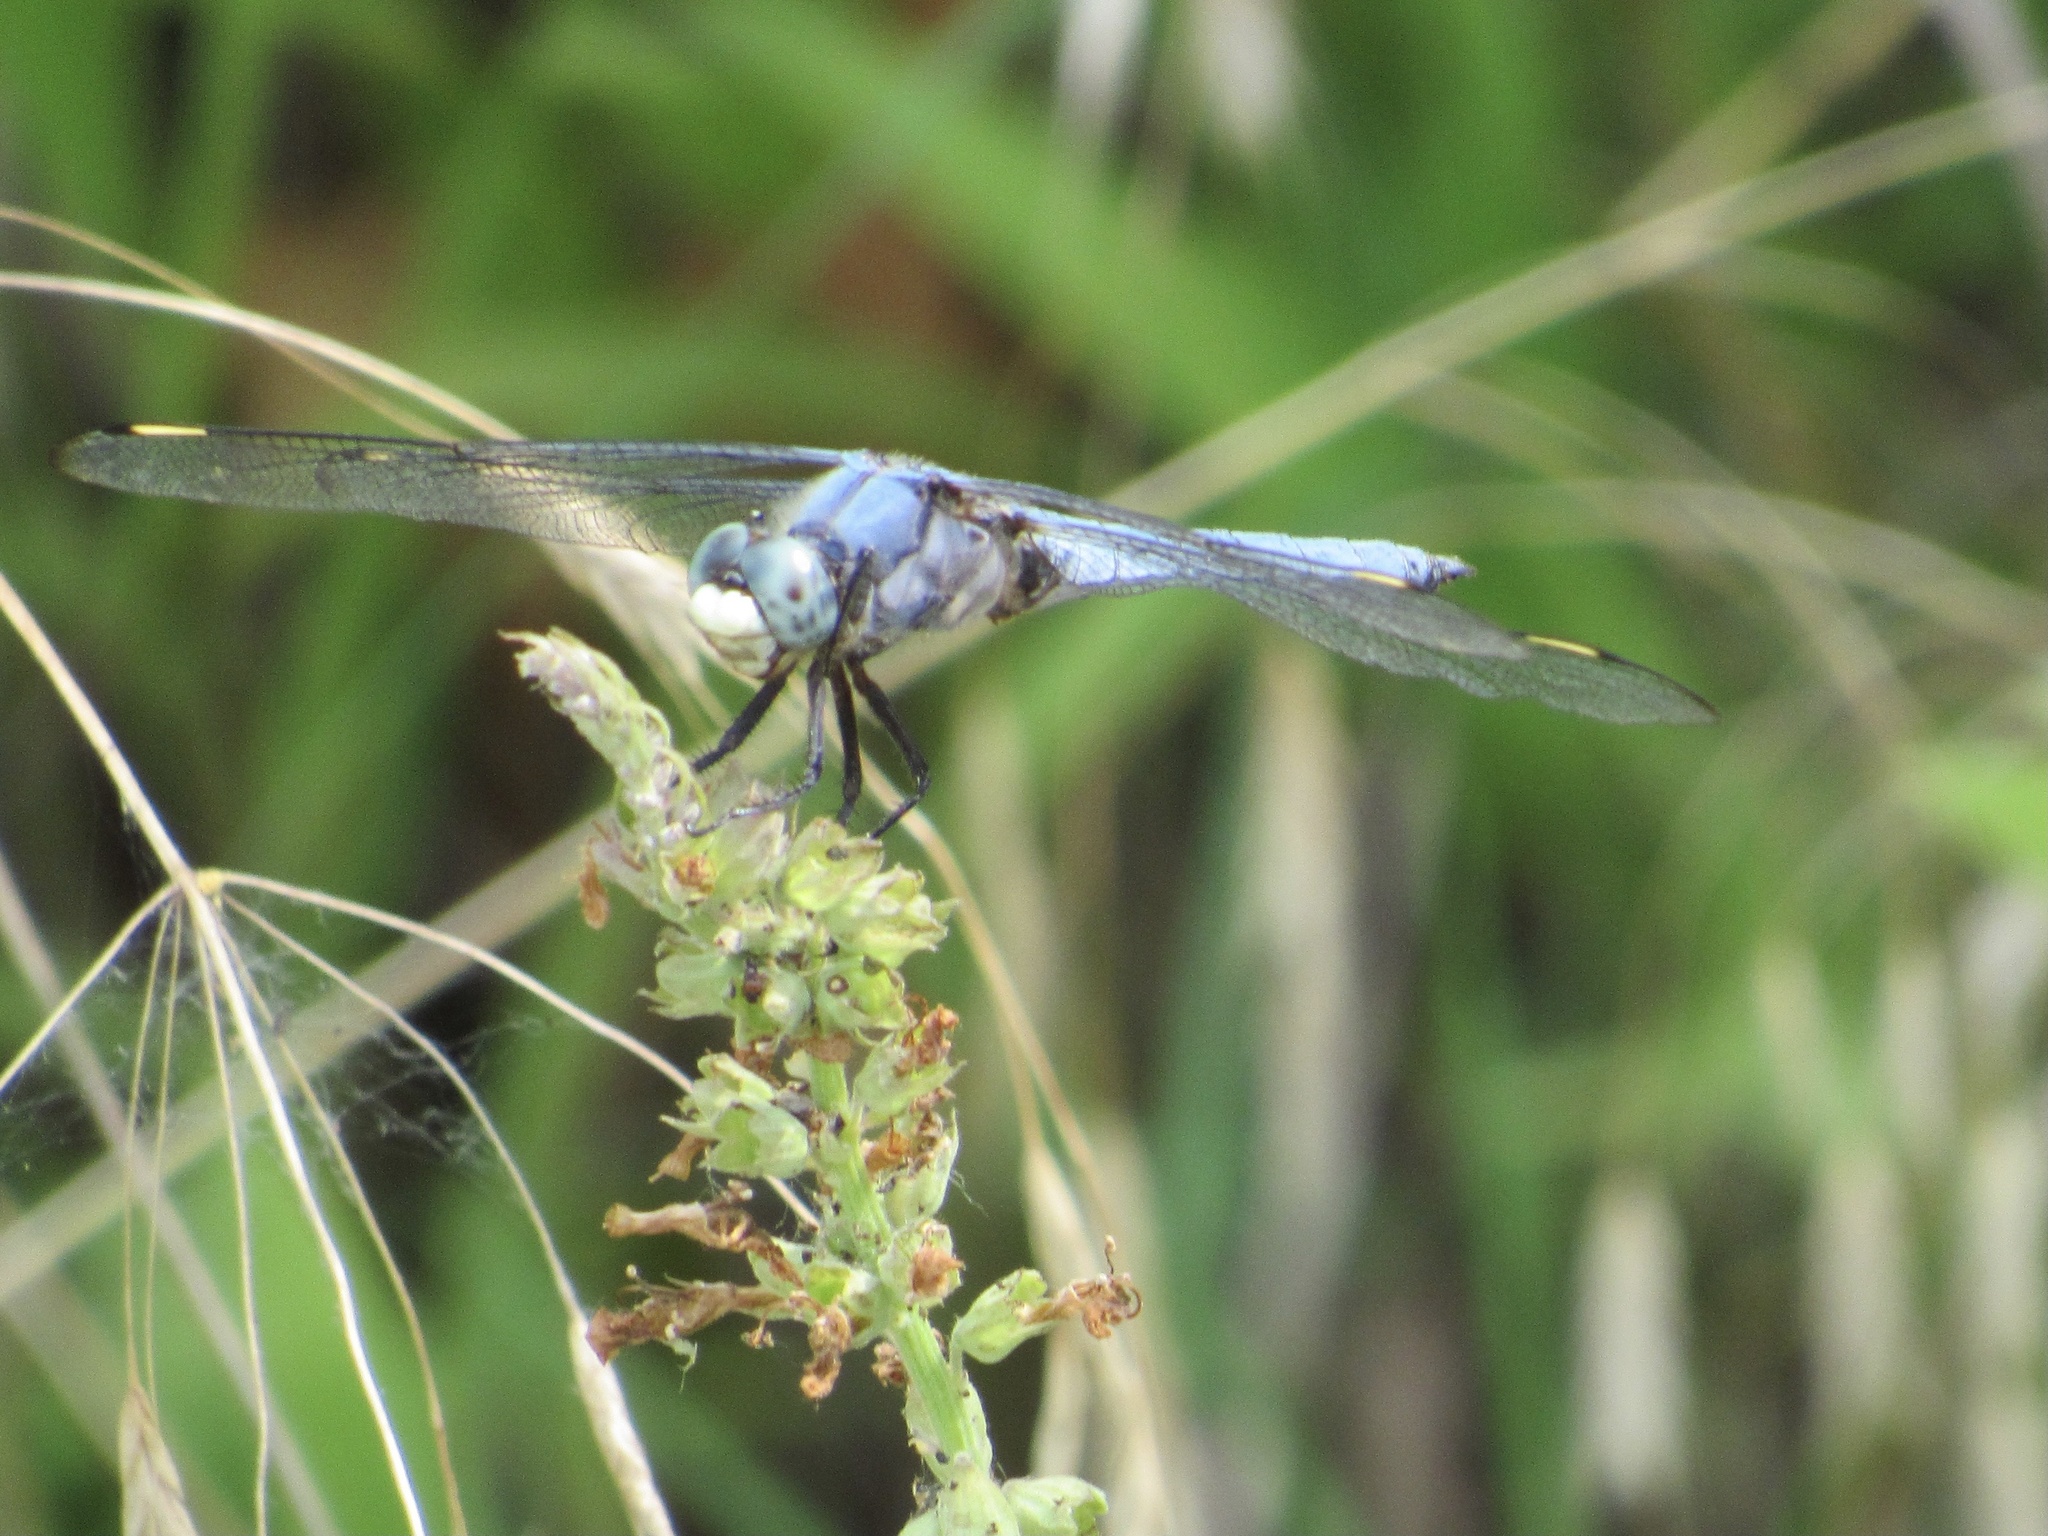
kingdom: Animalia
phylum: Arthropoda
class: Insecta
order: Odonata
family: Libellulidae
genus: Libellula
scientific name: Libellula comanche
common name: Comanche skimmer
